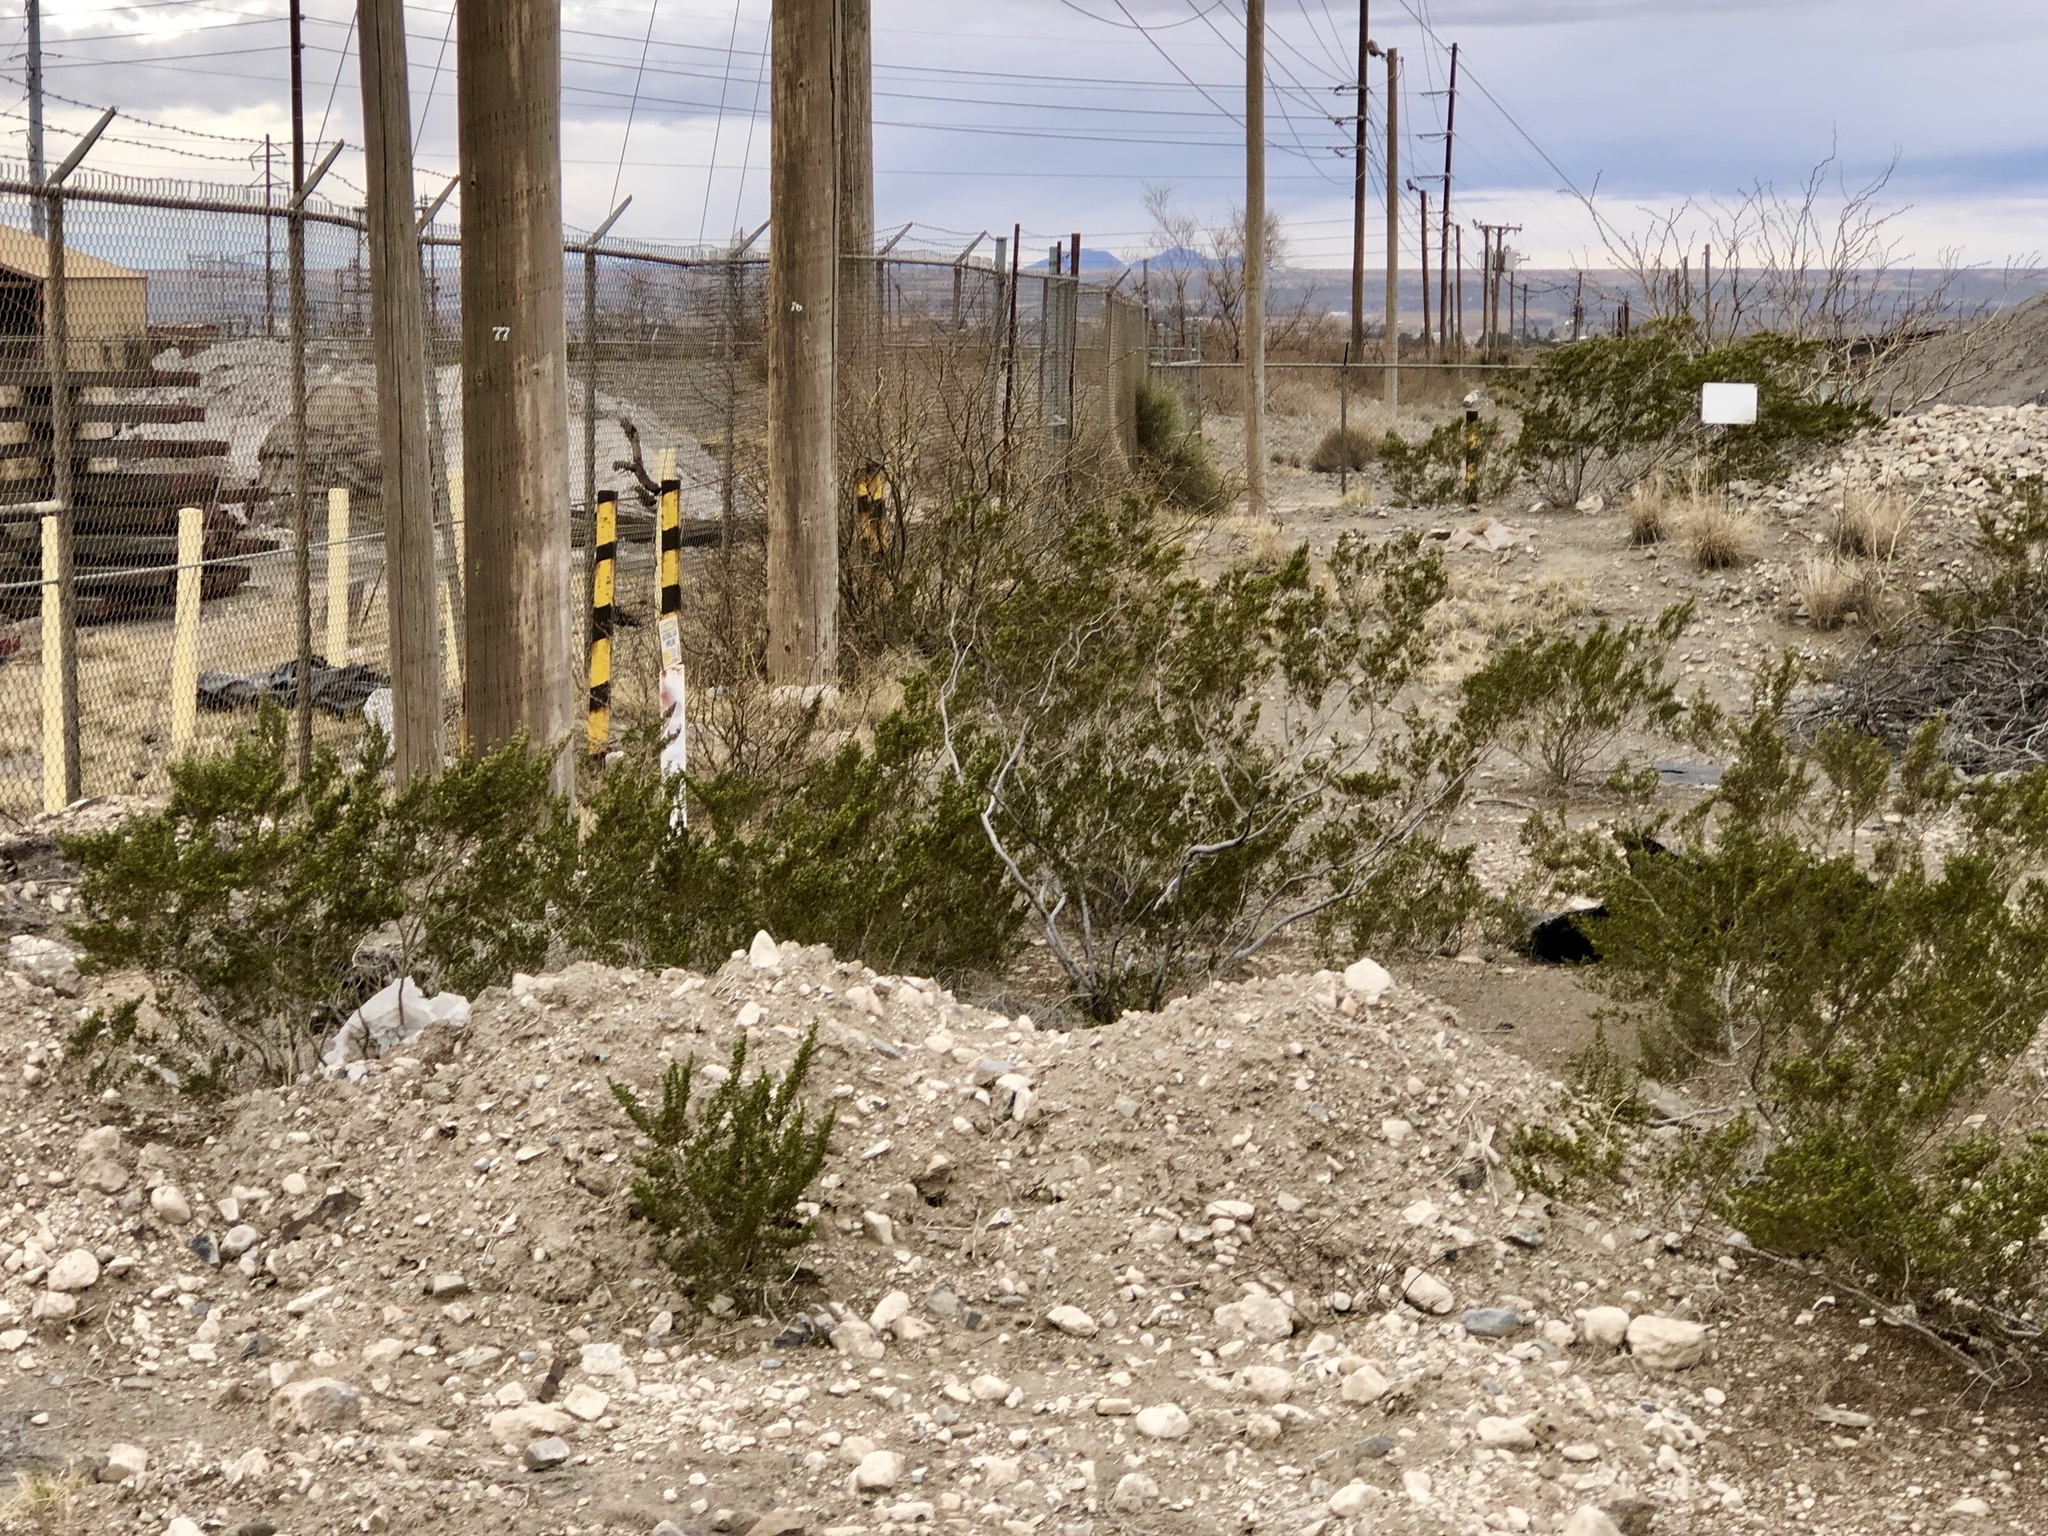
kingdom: Plantae
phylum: Tracheophyta
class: Magnoliopsida
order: Zygophyllales
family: Zygophyllaceae
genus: Larrea
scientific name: Larrea tridentata
